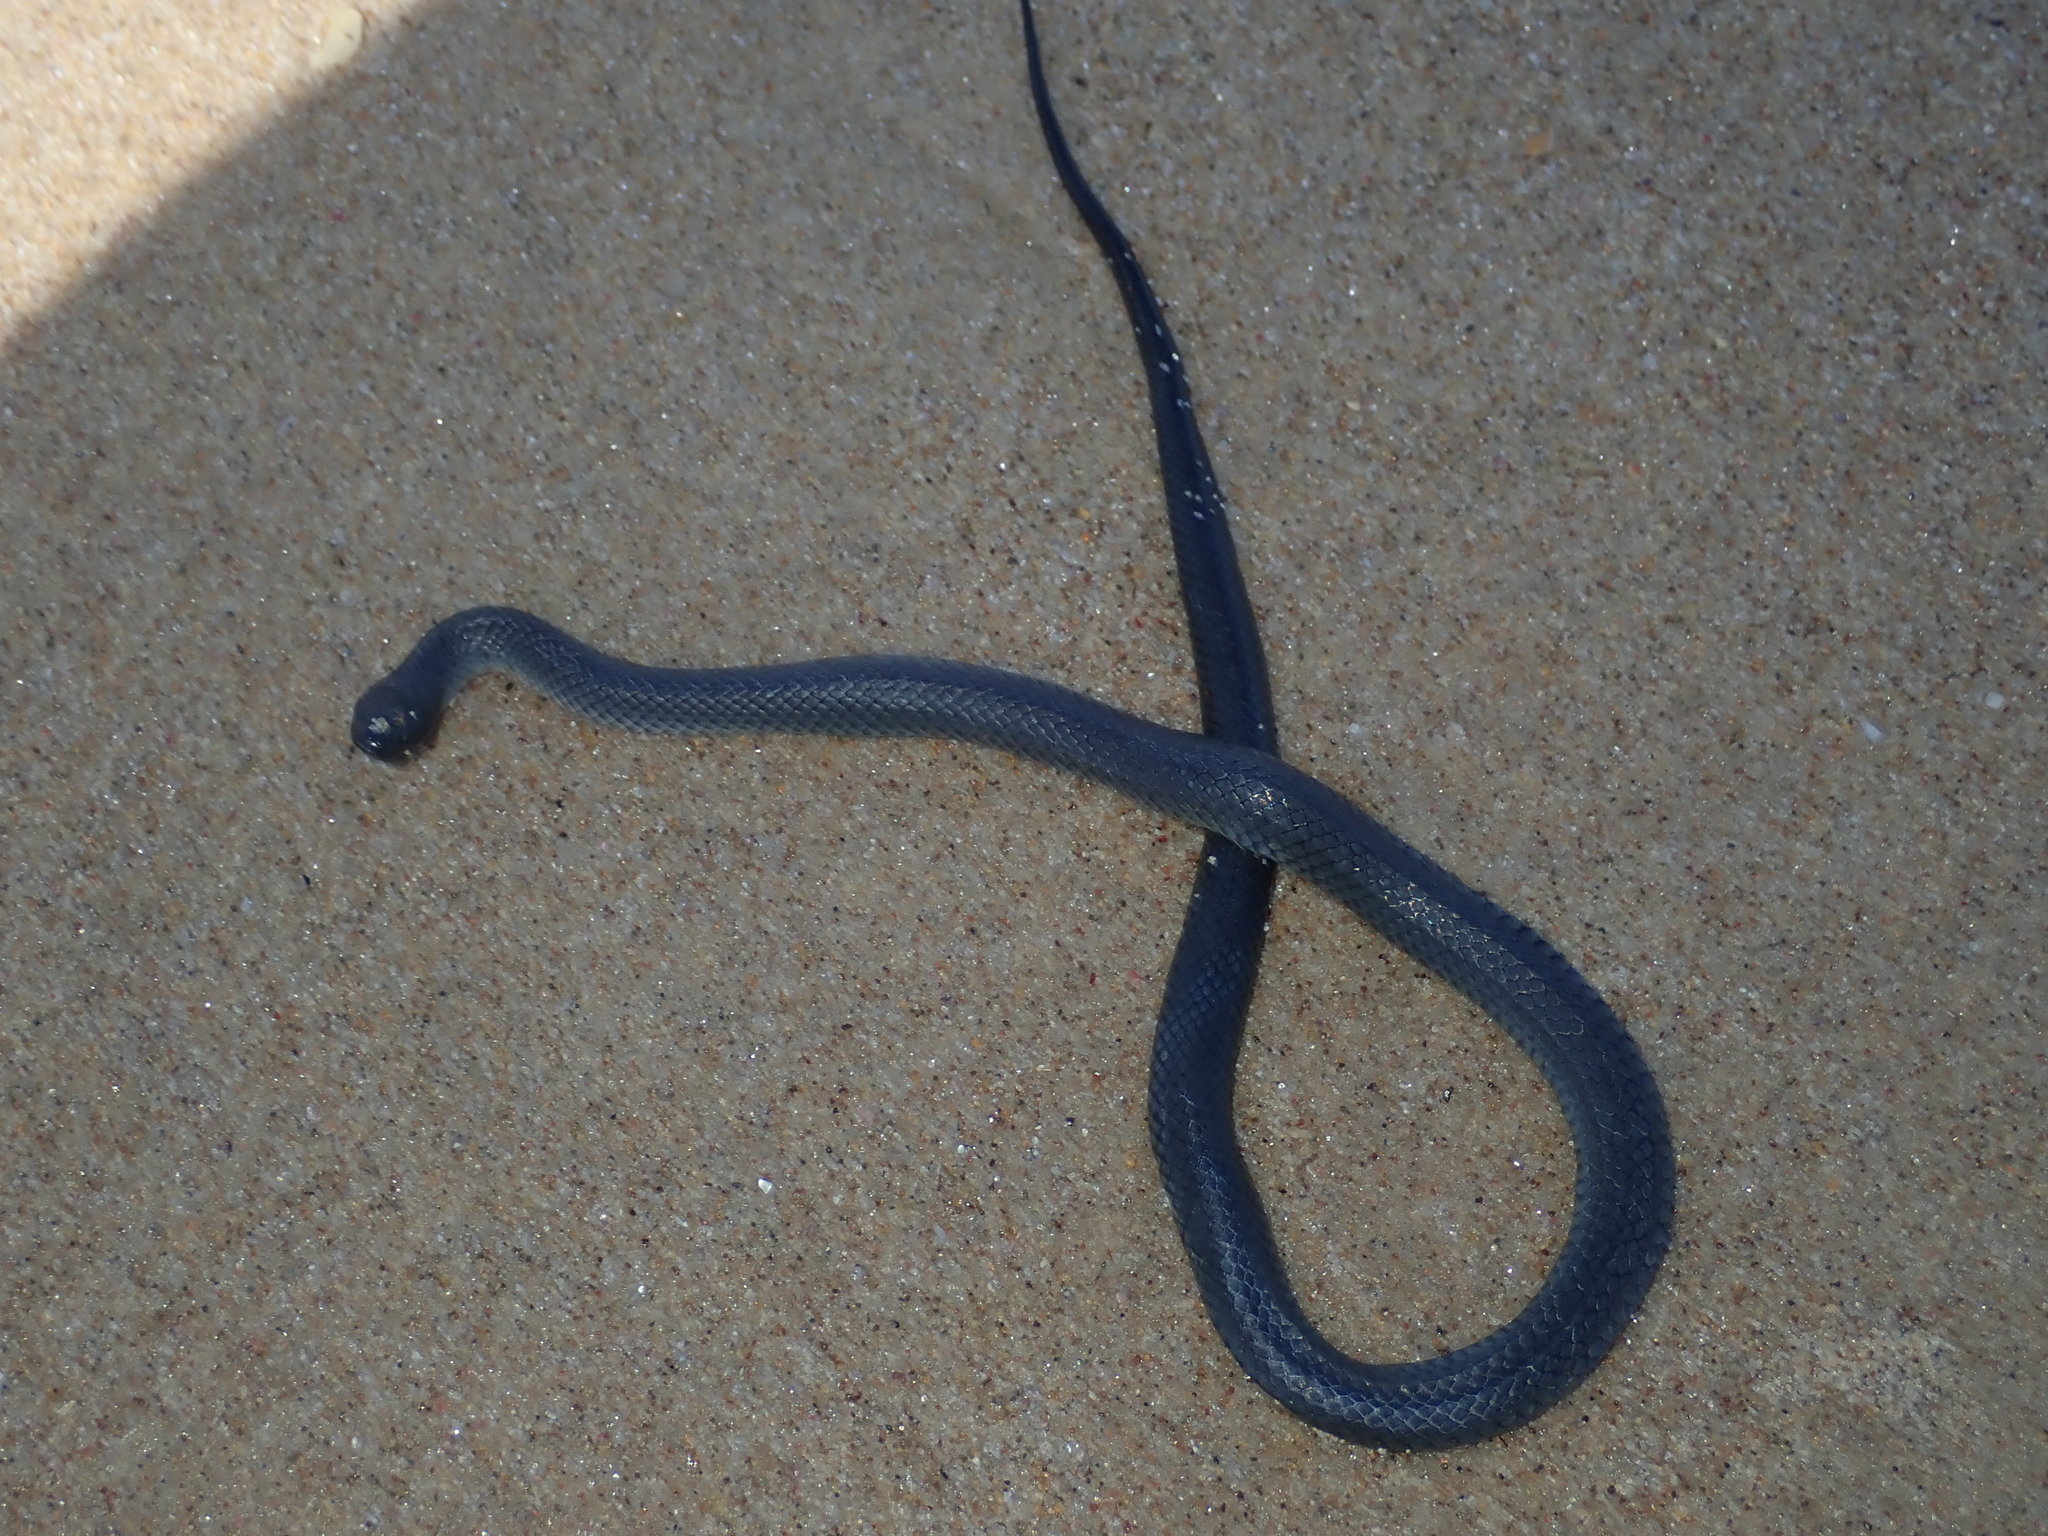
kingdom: Animalia
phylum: Chordata
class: Squamata
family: Elapidae
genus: Cryptophis
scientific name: Cryptophis nigrescens
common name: Eastern small-eyed snake
